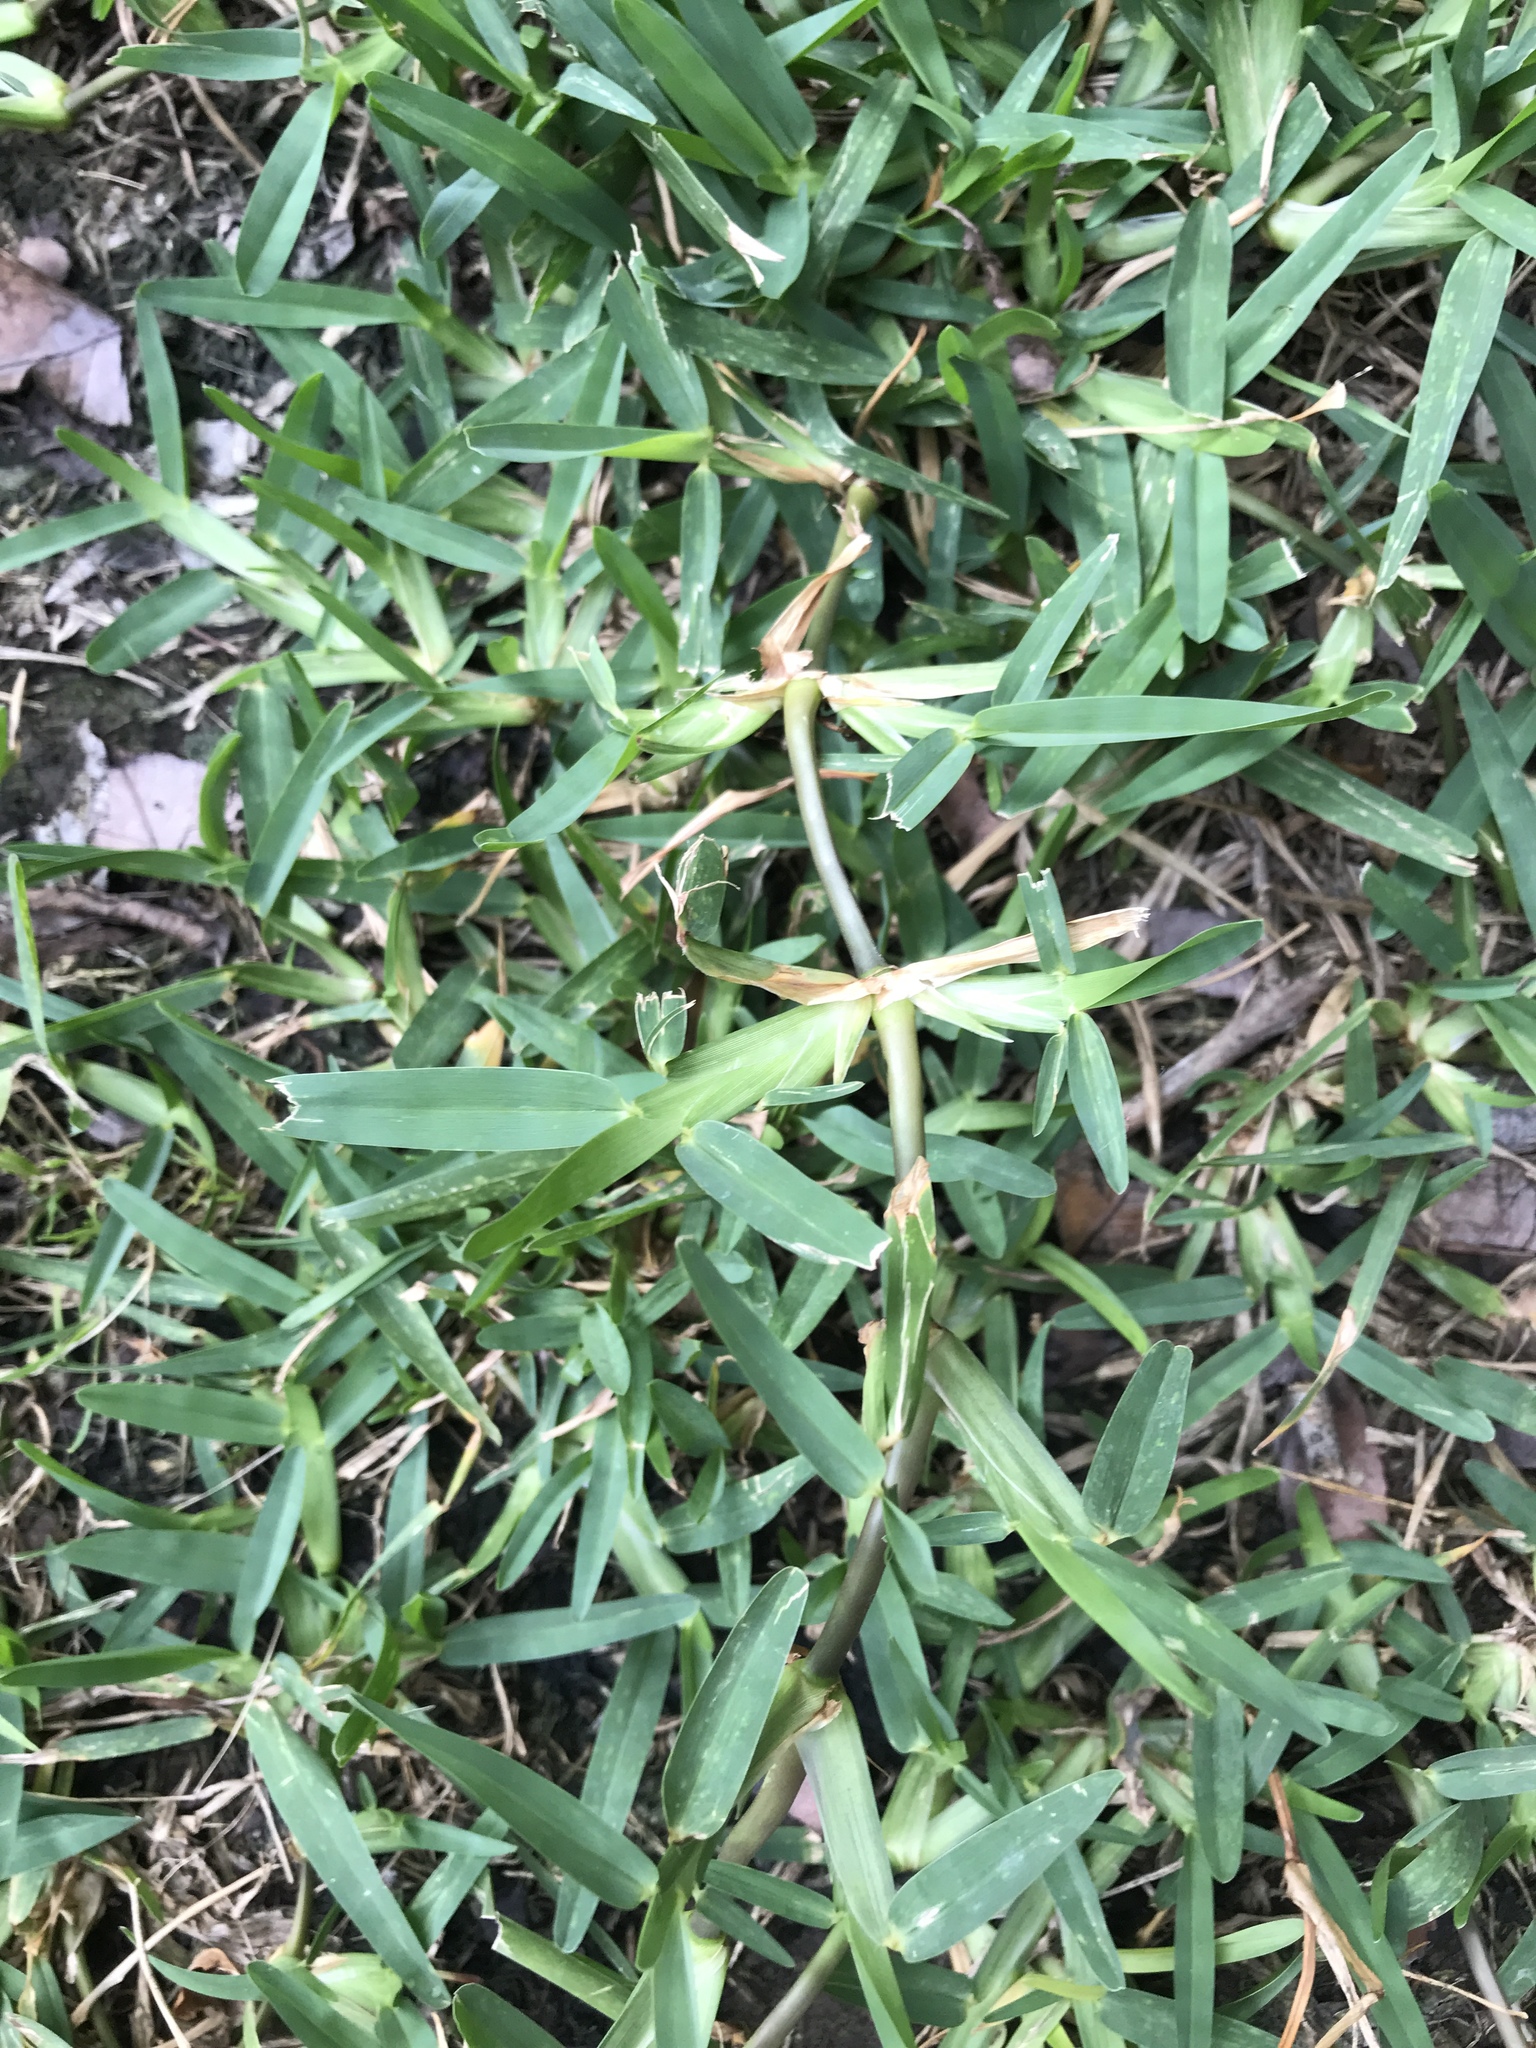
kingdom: Plantae
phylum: Tracheophyta
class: Liliopsida
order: Poales
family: Poaceae
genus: Stenotaphrum
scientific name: Stenotaphrum secundatum
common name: St. augustine grass
